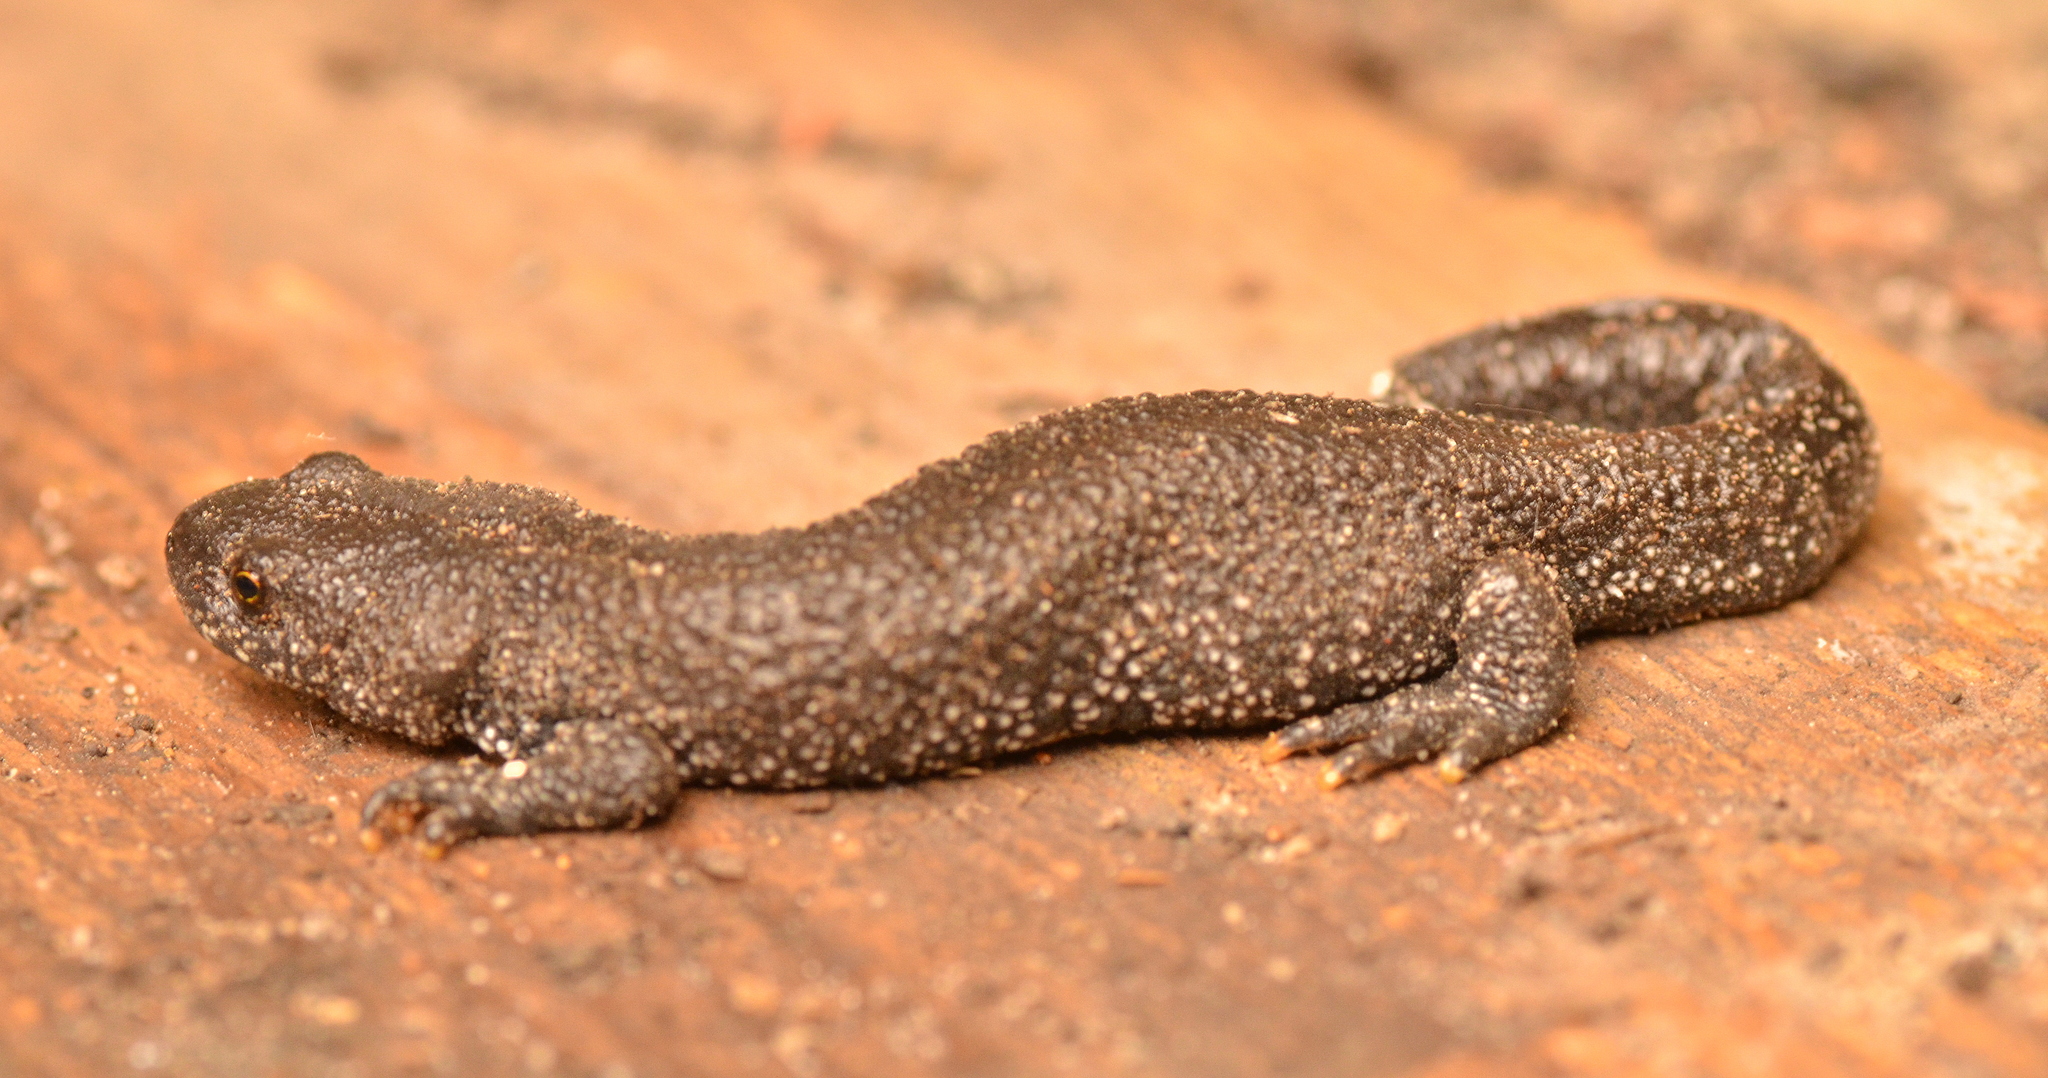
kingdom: Animalia
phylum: Chordata
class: Amphibia
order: Caudata
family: Salamandridae
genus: Triturus
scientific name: Triturus cristatus
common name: Crested newt
